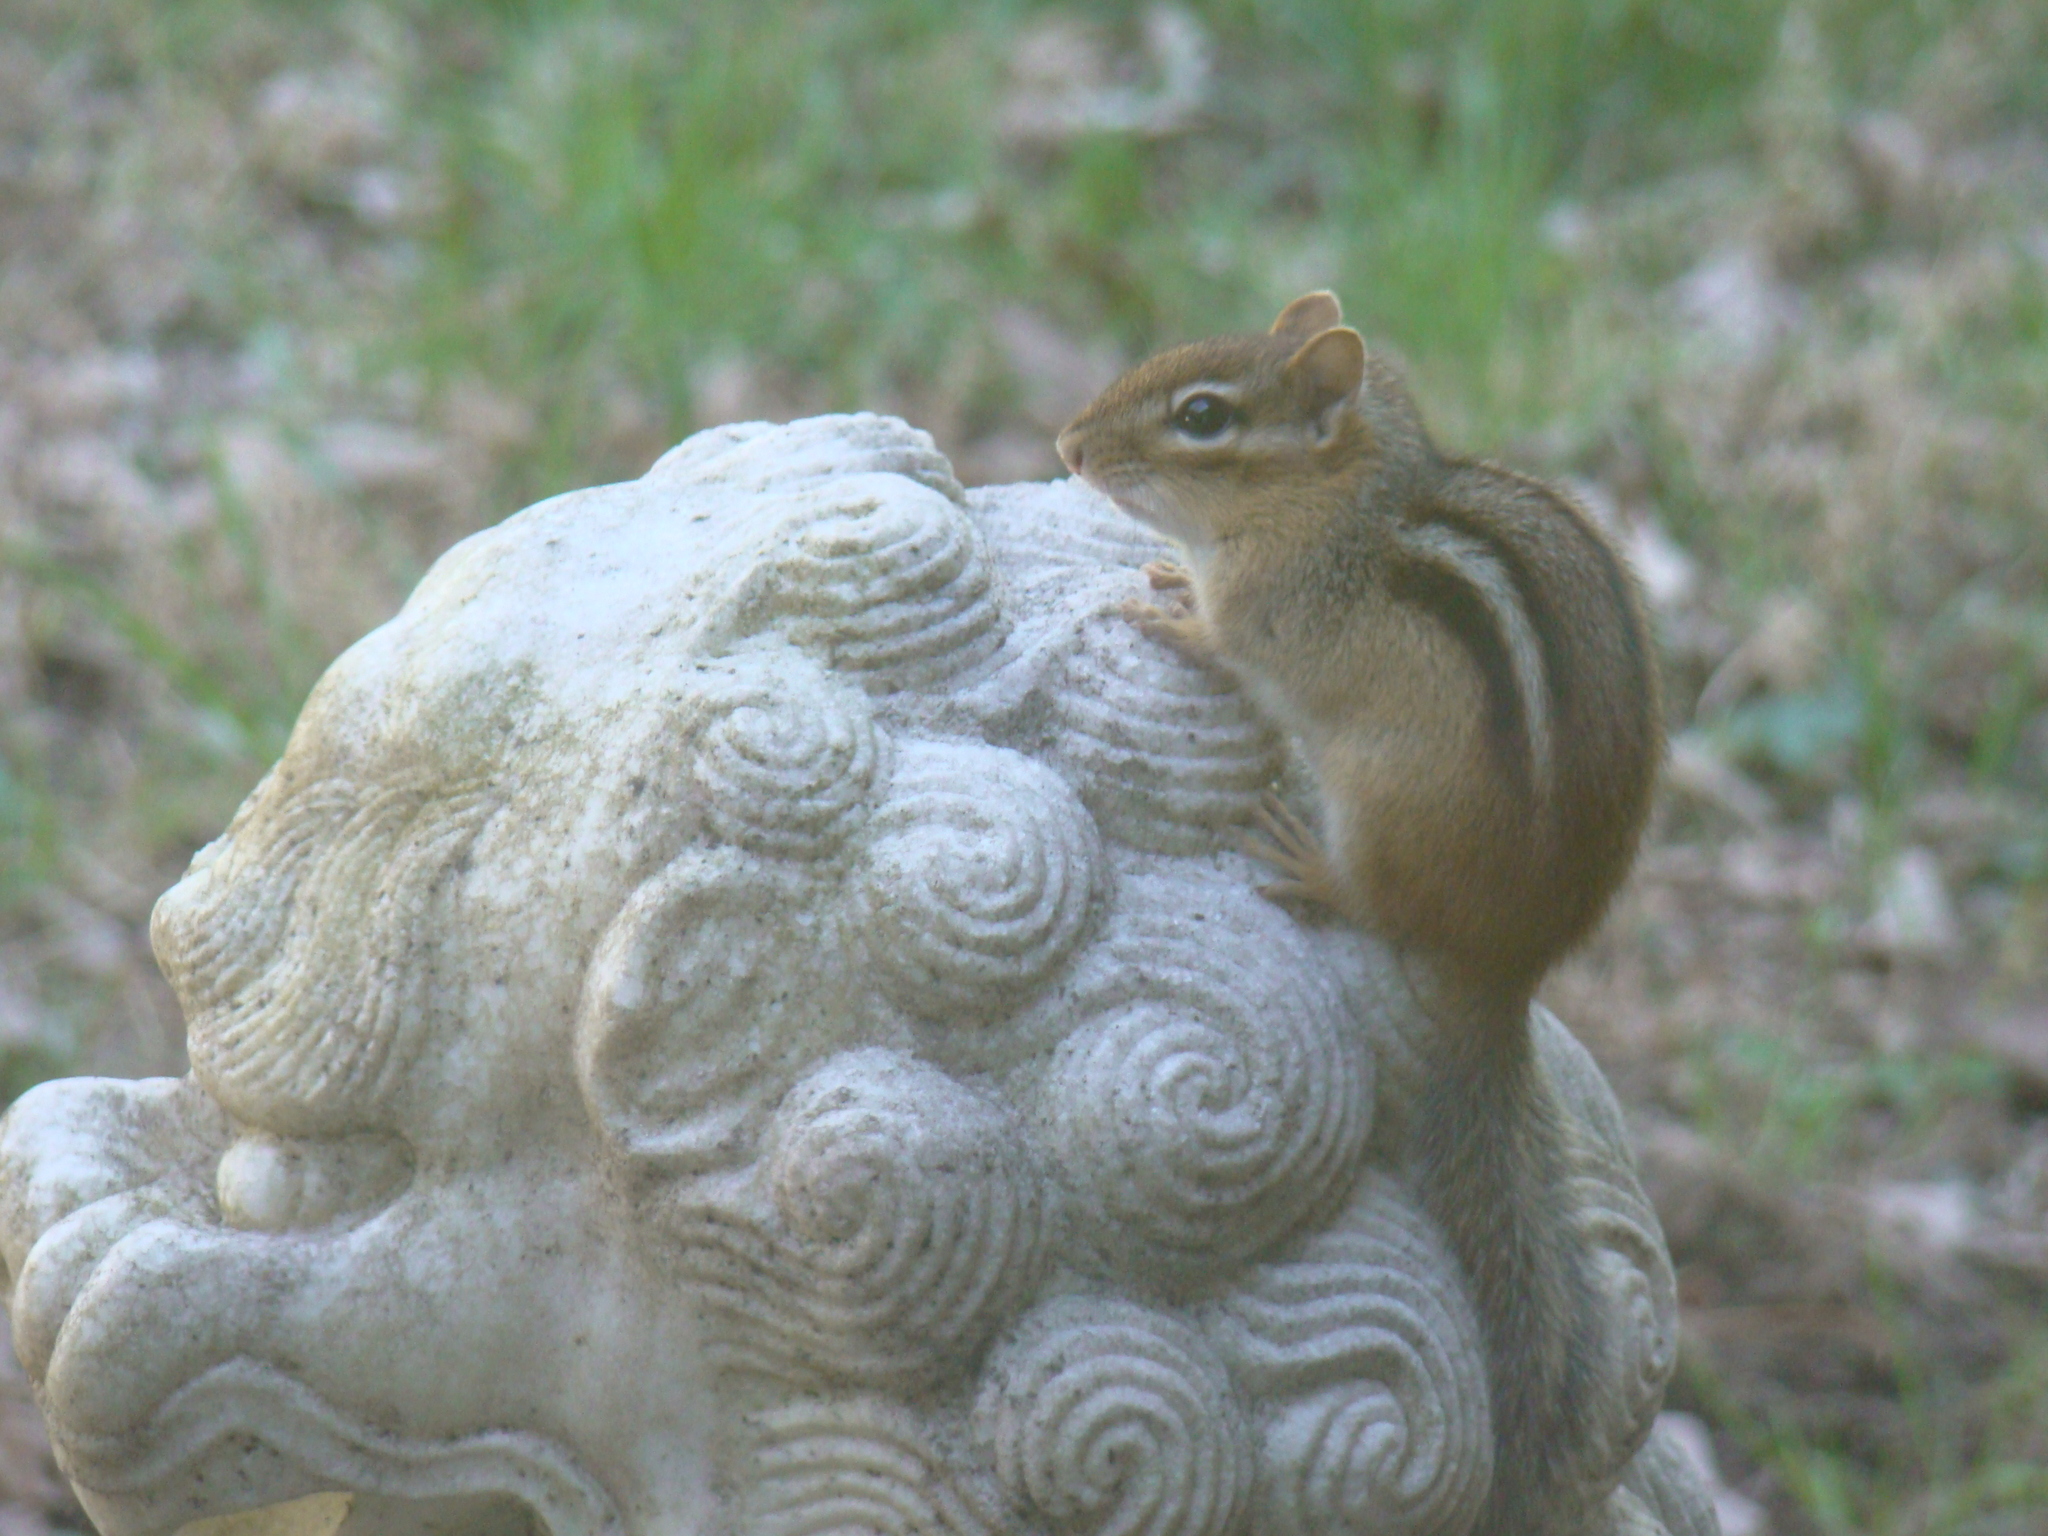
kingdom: Animalia
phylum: Chordata
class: Mammalia
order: Rodentia
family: Sciuridae
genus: Tamias
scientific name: Tamias striatus
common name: Eastern chipmunk
